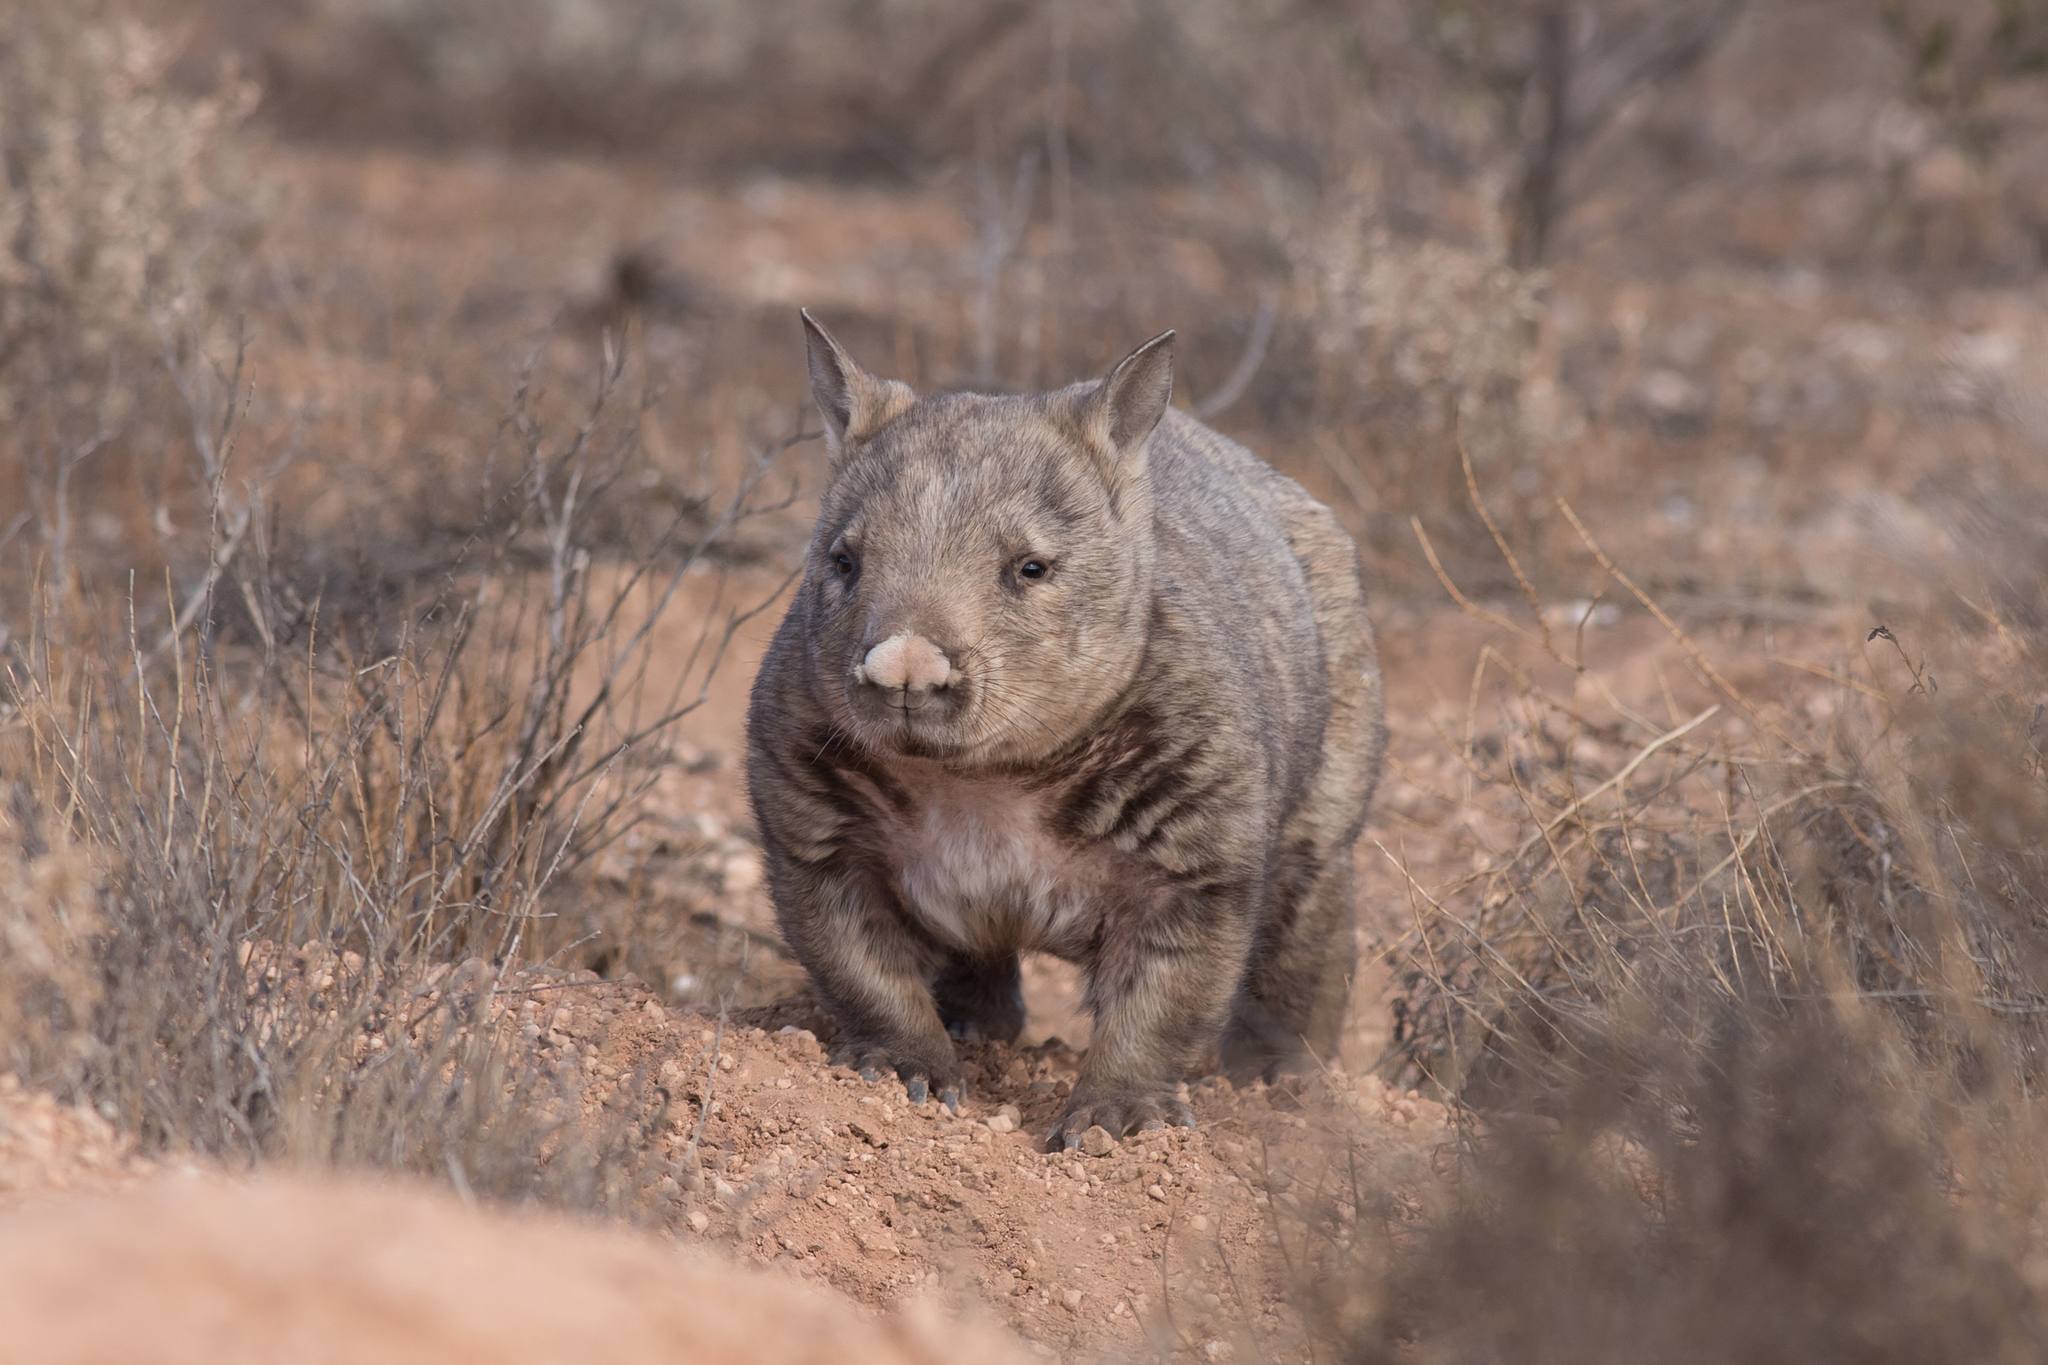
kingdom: Animalia
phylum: Chordata
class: Mammalia
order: Diprotodontia
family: Vombatidae
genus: Lasiorhinus
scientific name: Lasiorhinus latifrons
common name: Southern hairy-nosed wombat
